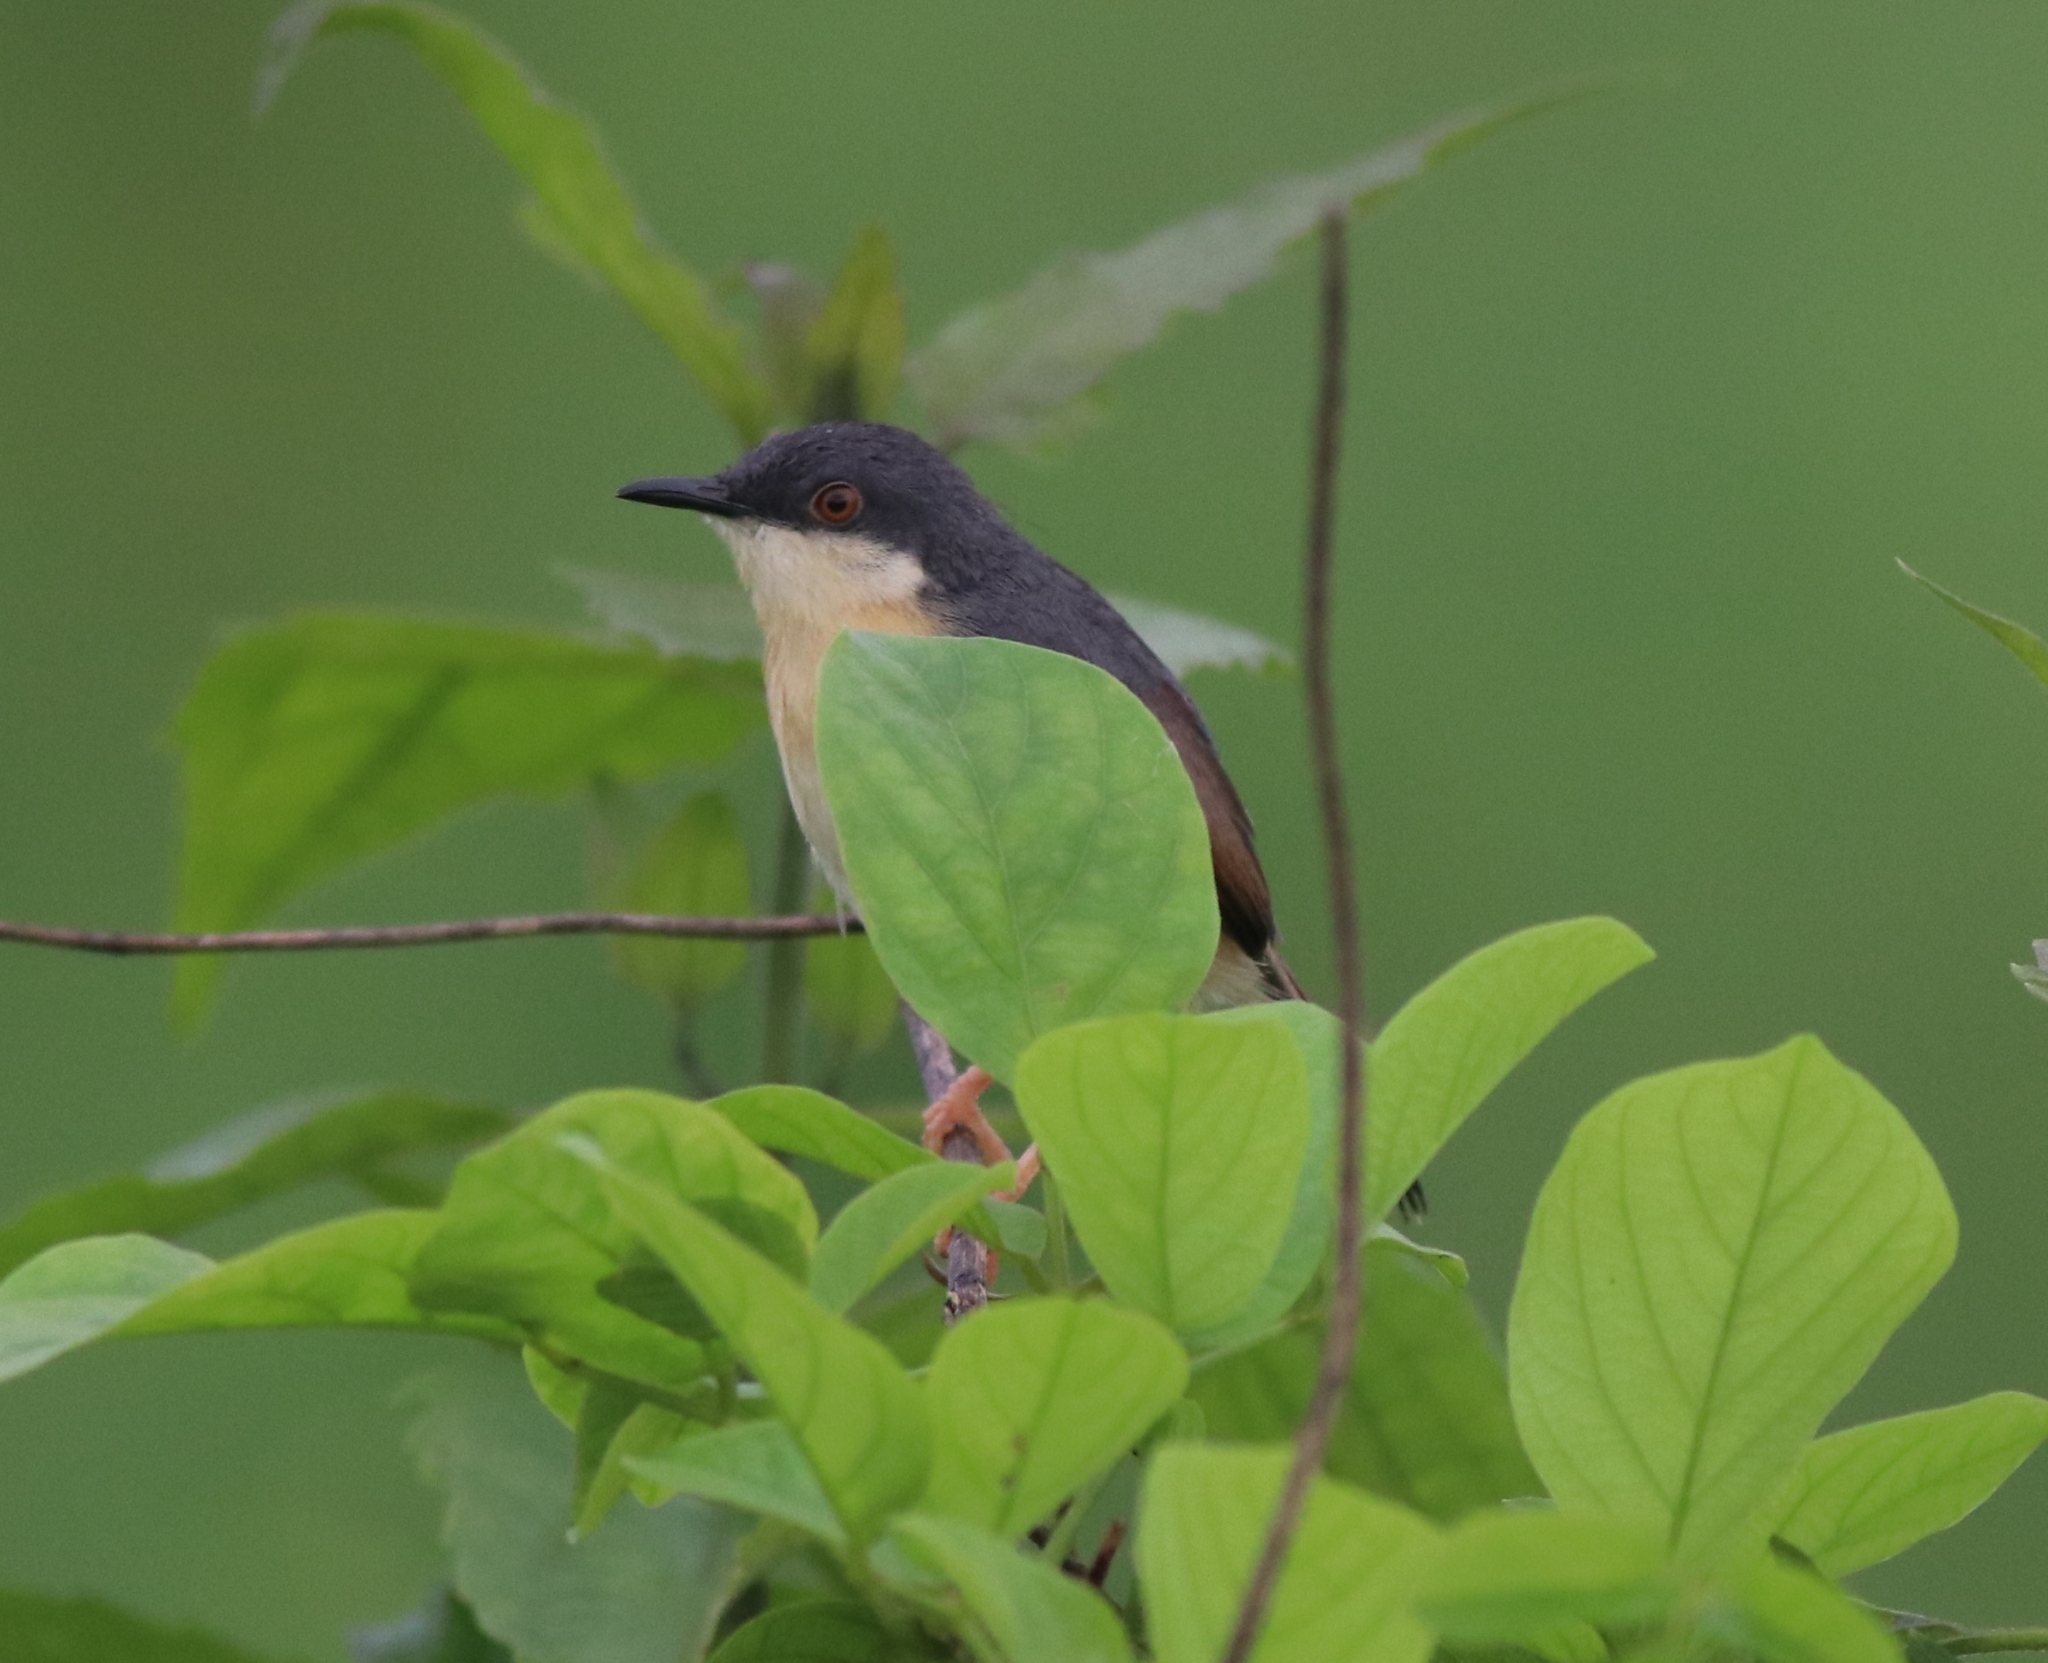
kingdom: Animalia
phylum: Chordata
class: Aves
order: Passeriformes
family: Cisticolidae
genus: Prinia
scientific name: Prinia socialis
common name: Ashy prinia
